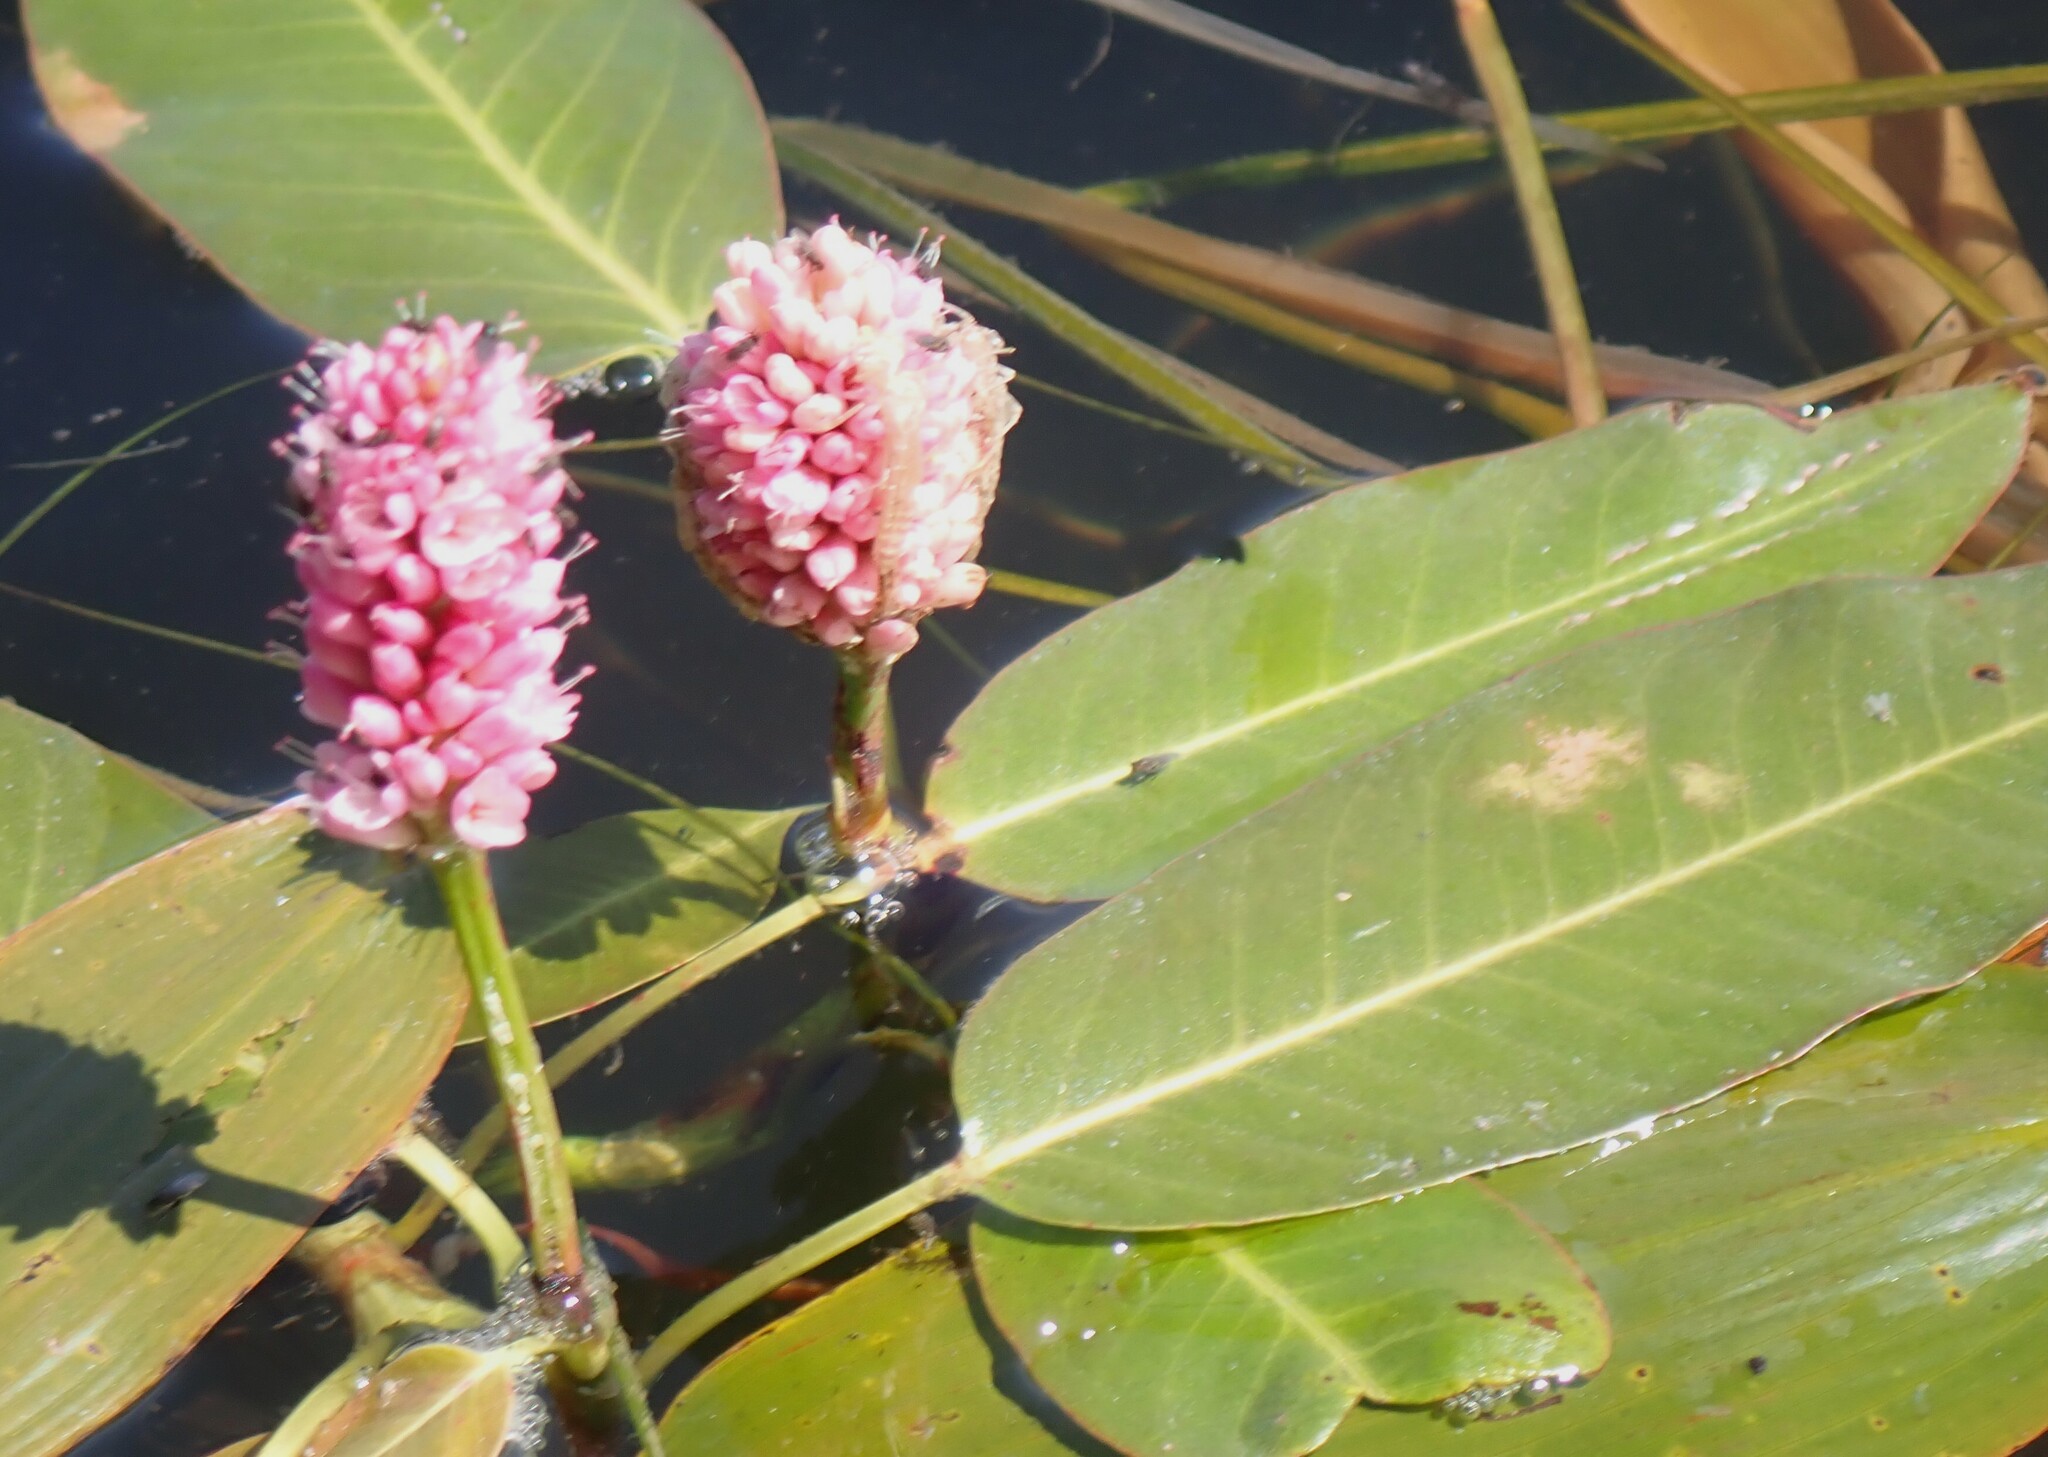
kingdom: Plantae
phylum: Tracheophyta
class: Magnoliopsida
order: Caryophyllales
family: Polygonaceae
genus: Persicaria
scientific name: Persicaria amphibia
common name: Amphibious bistort
